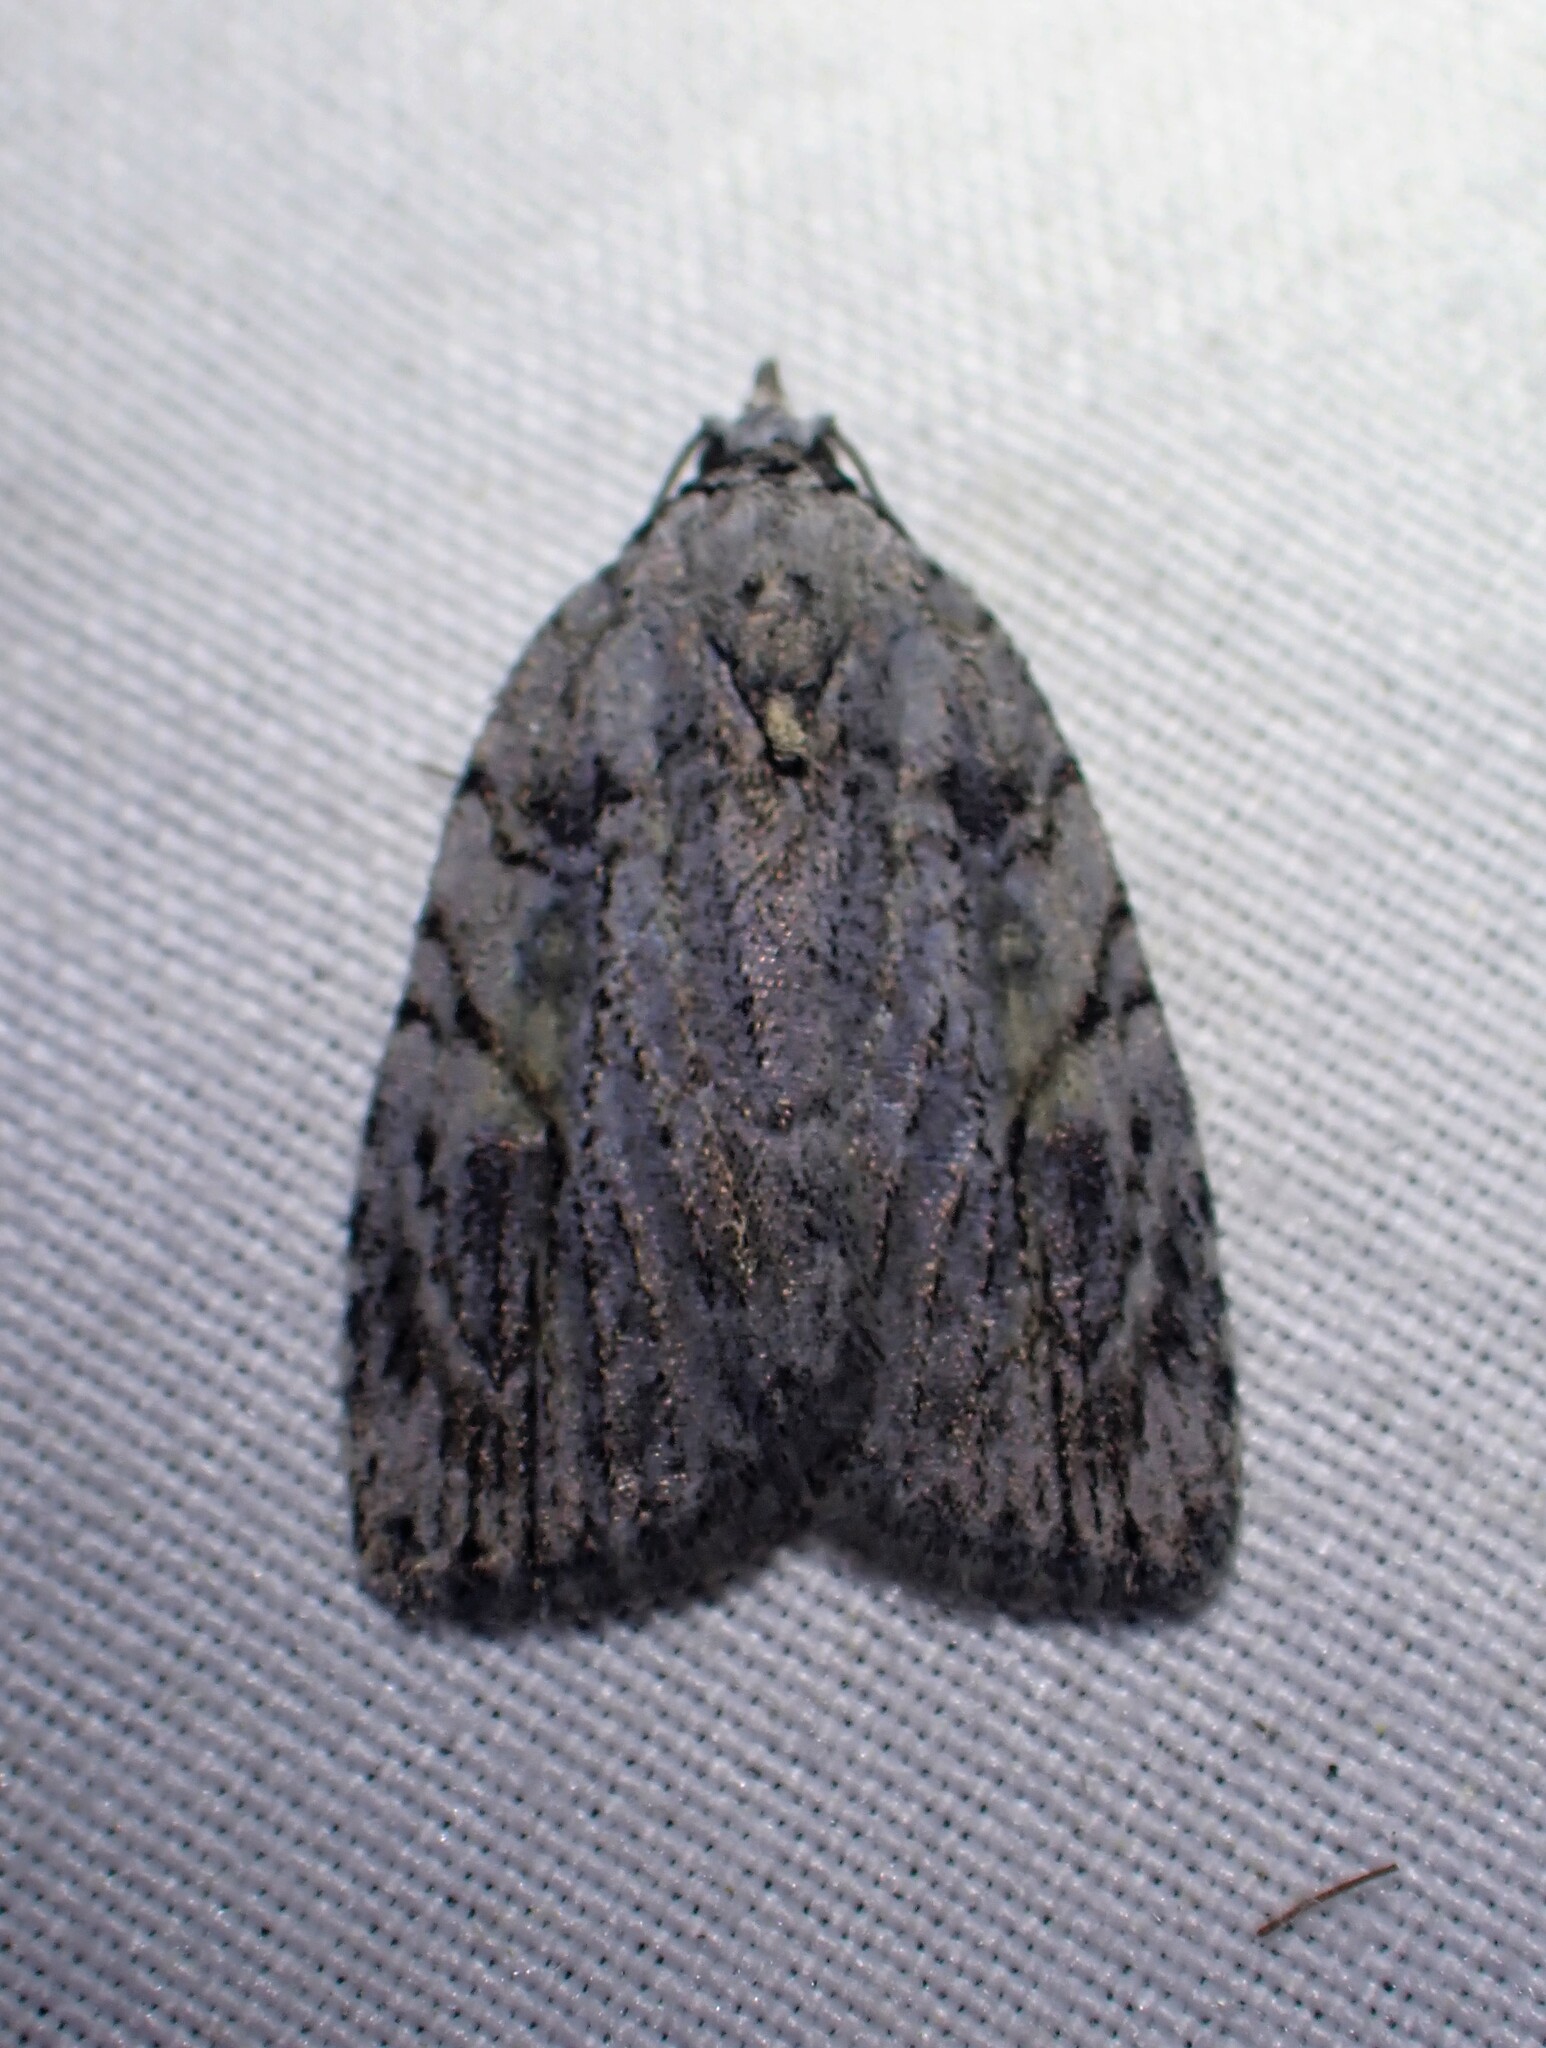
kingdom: Animalia
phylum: Arthropoda
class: Insecta
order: Lepidoptera
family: Noctuidae
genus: Balsa
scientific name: Balsa labecula
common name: White-blotched balsa moth
